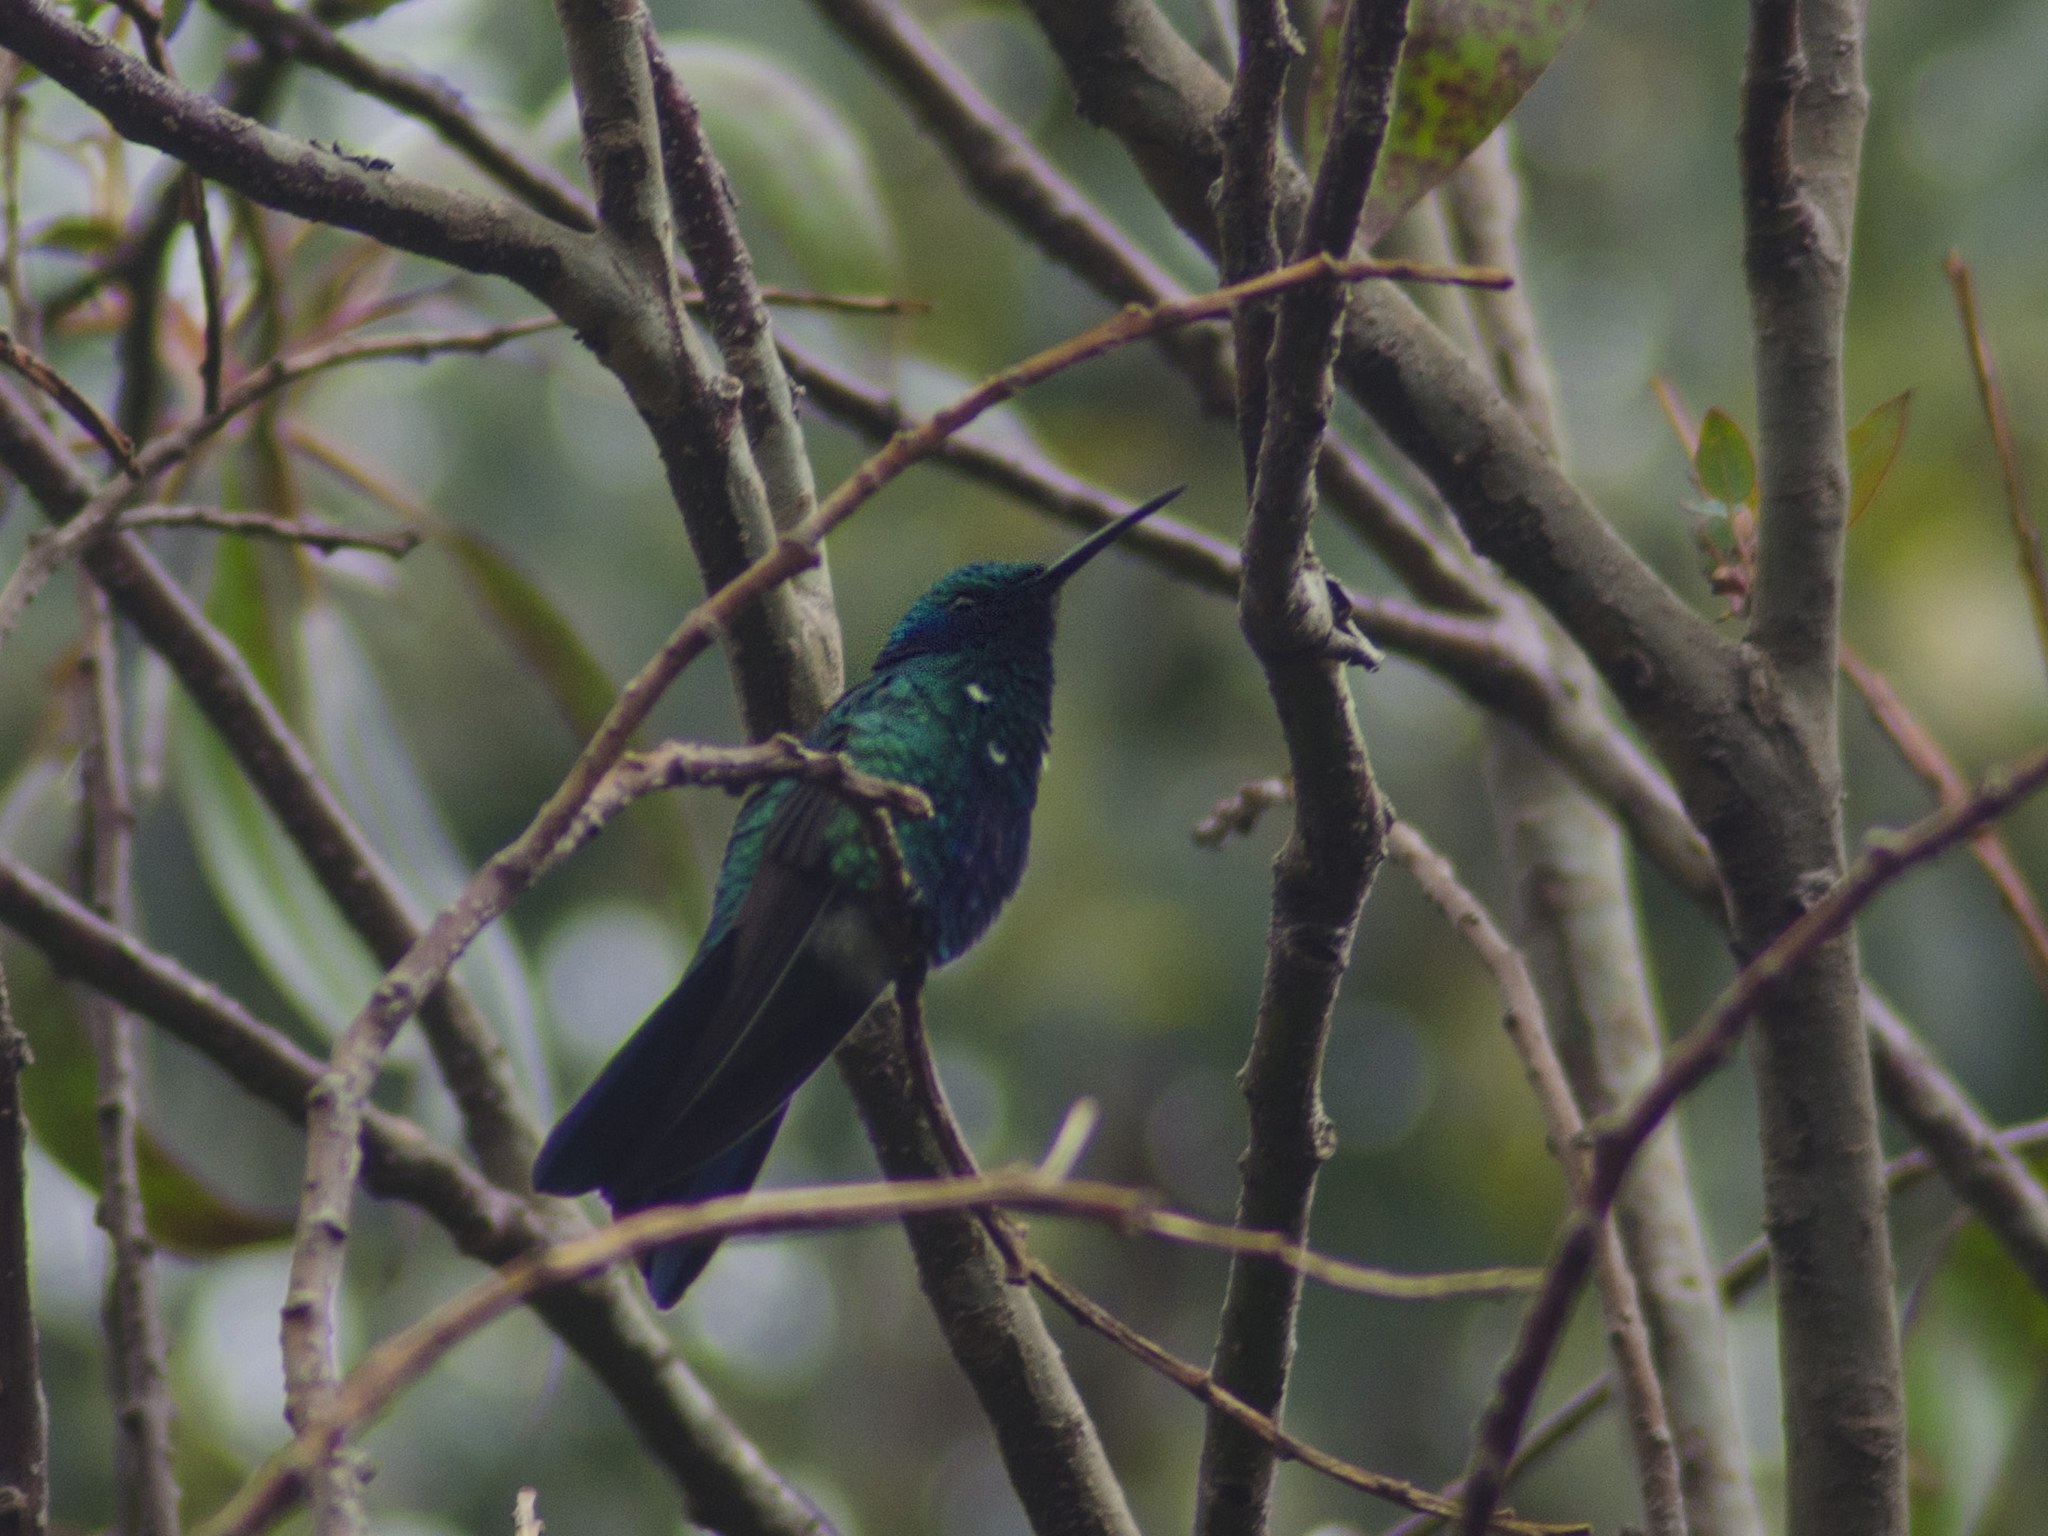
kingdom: Animalia
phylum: Chordata
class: Aves
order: Apodiformes
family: Trochilidae
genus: Colibri
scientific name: Colibri coruscans
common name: Sparkling violetear
